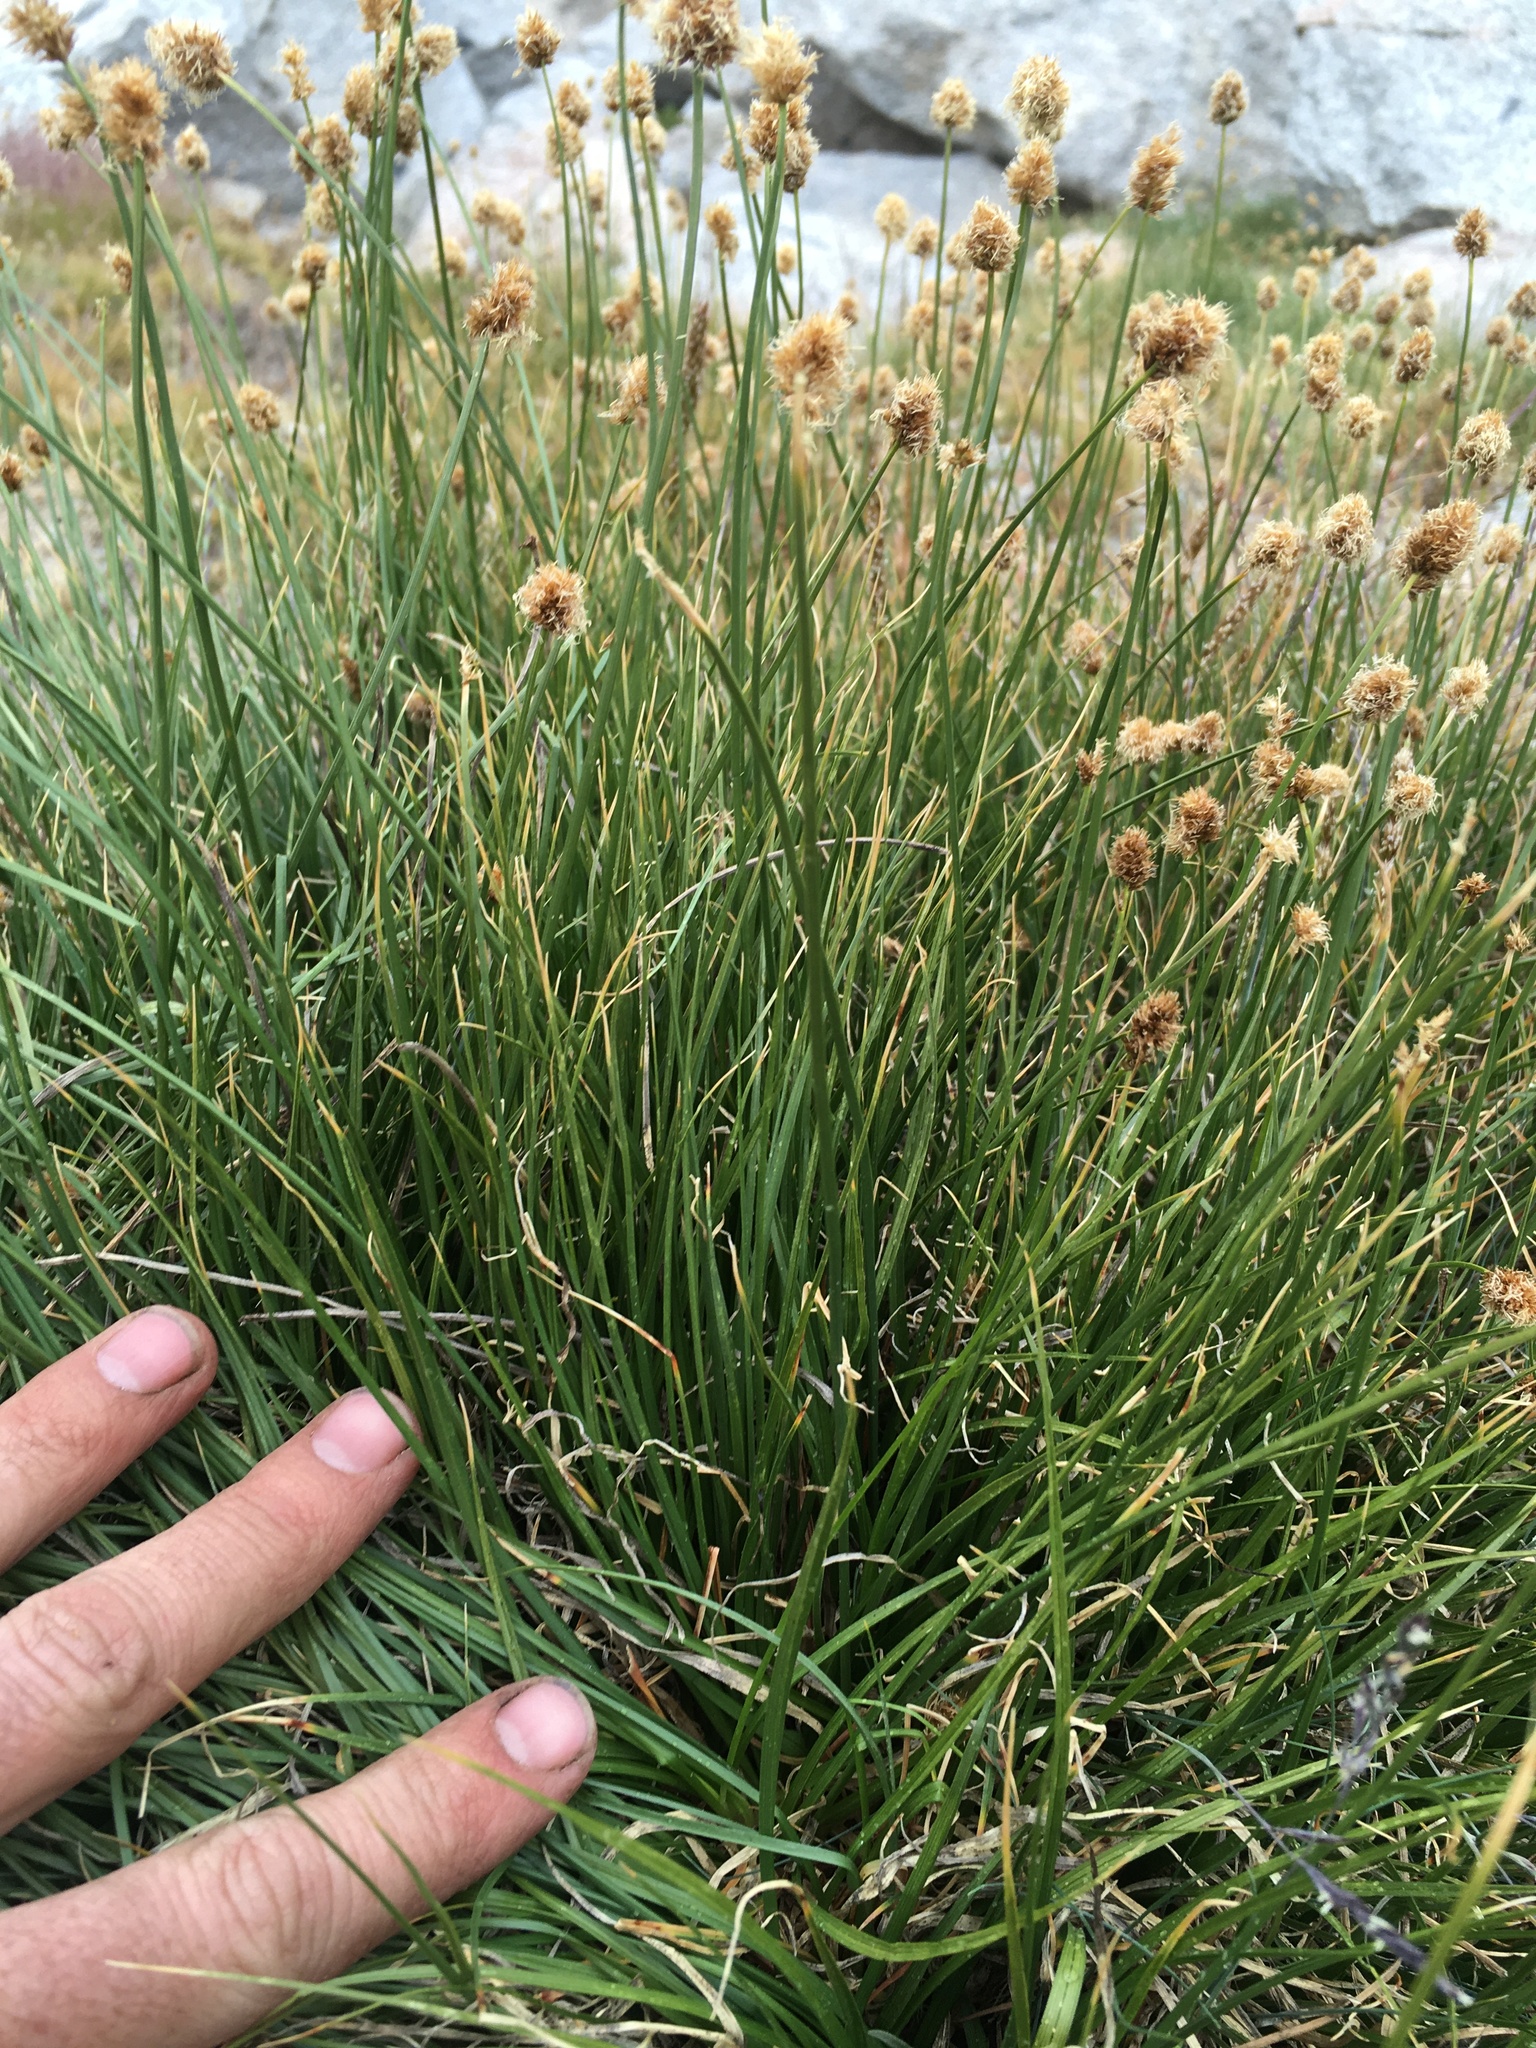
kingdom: Plantae
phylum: Tracheophyta
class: Liliopsida
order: Poales
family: Cyperaceae
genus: Carex
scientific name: Carex vernacula
